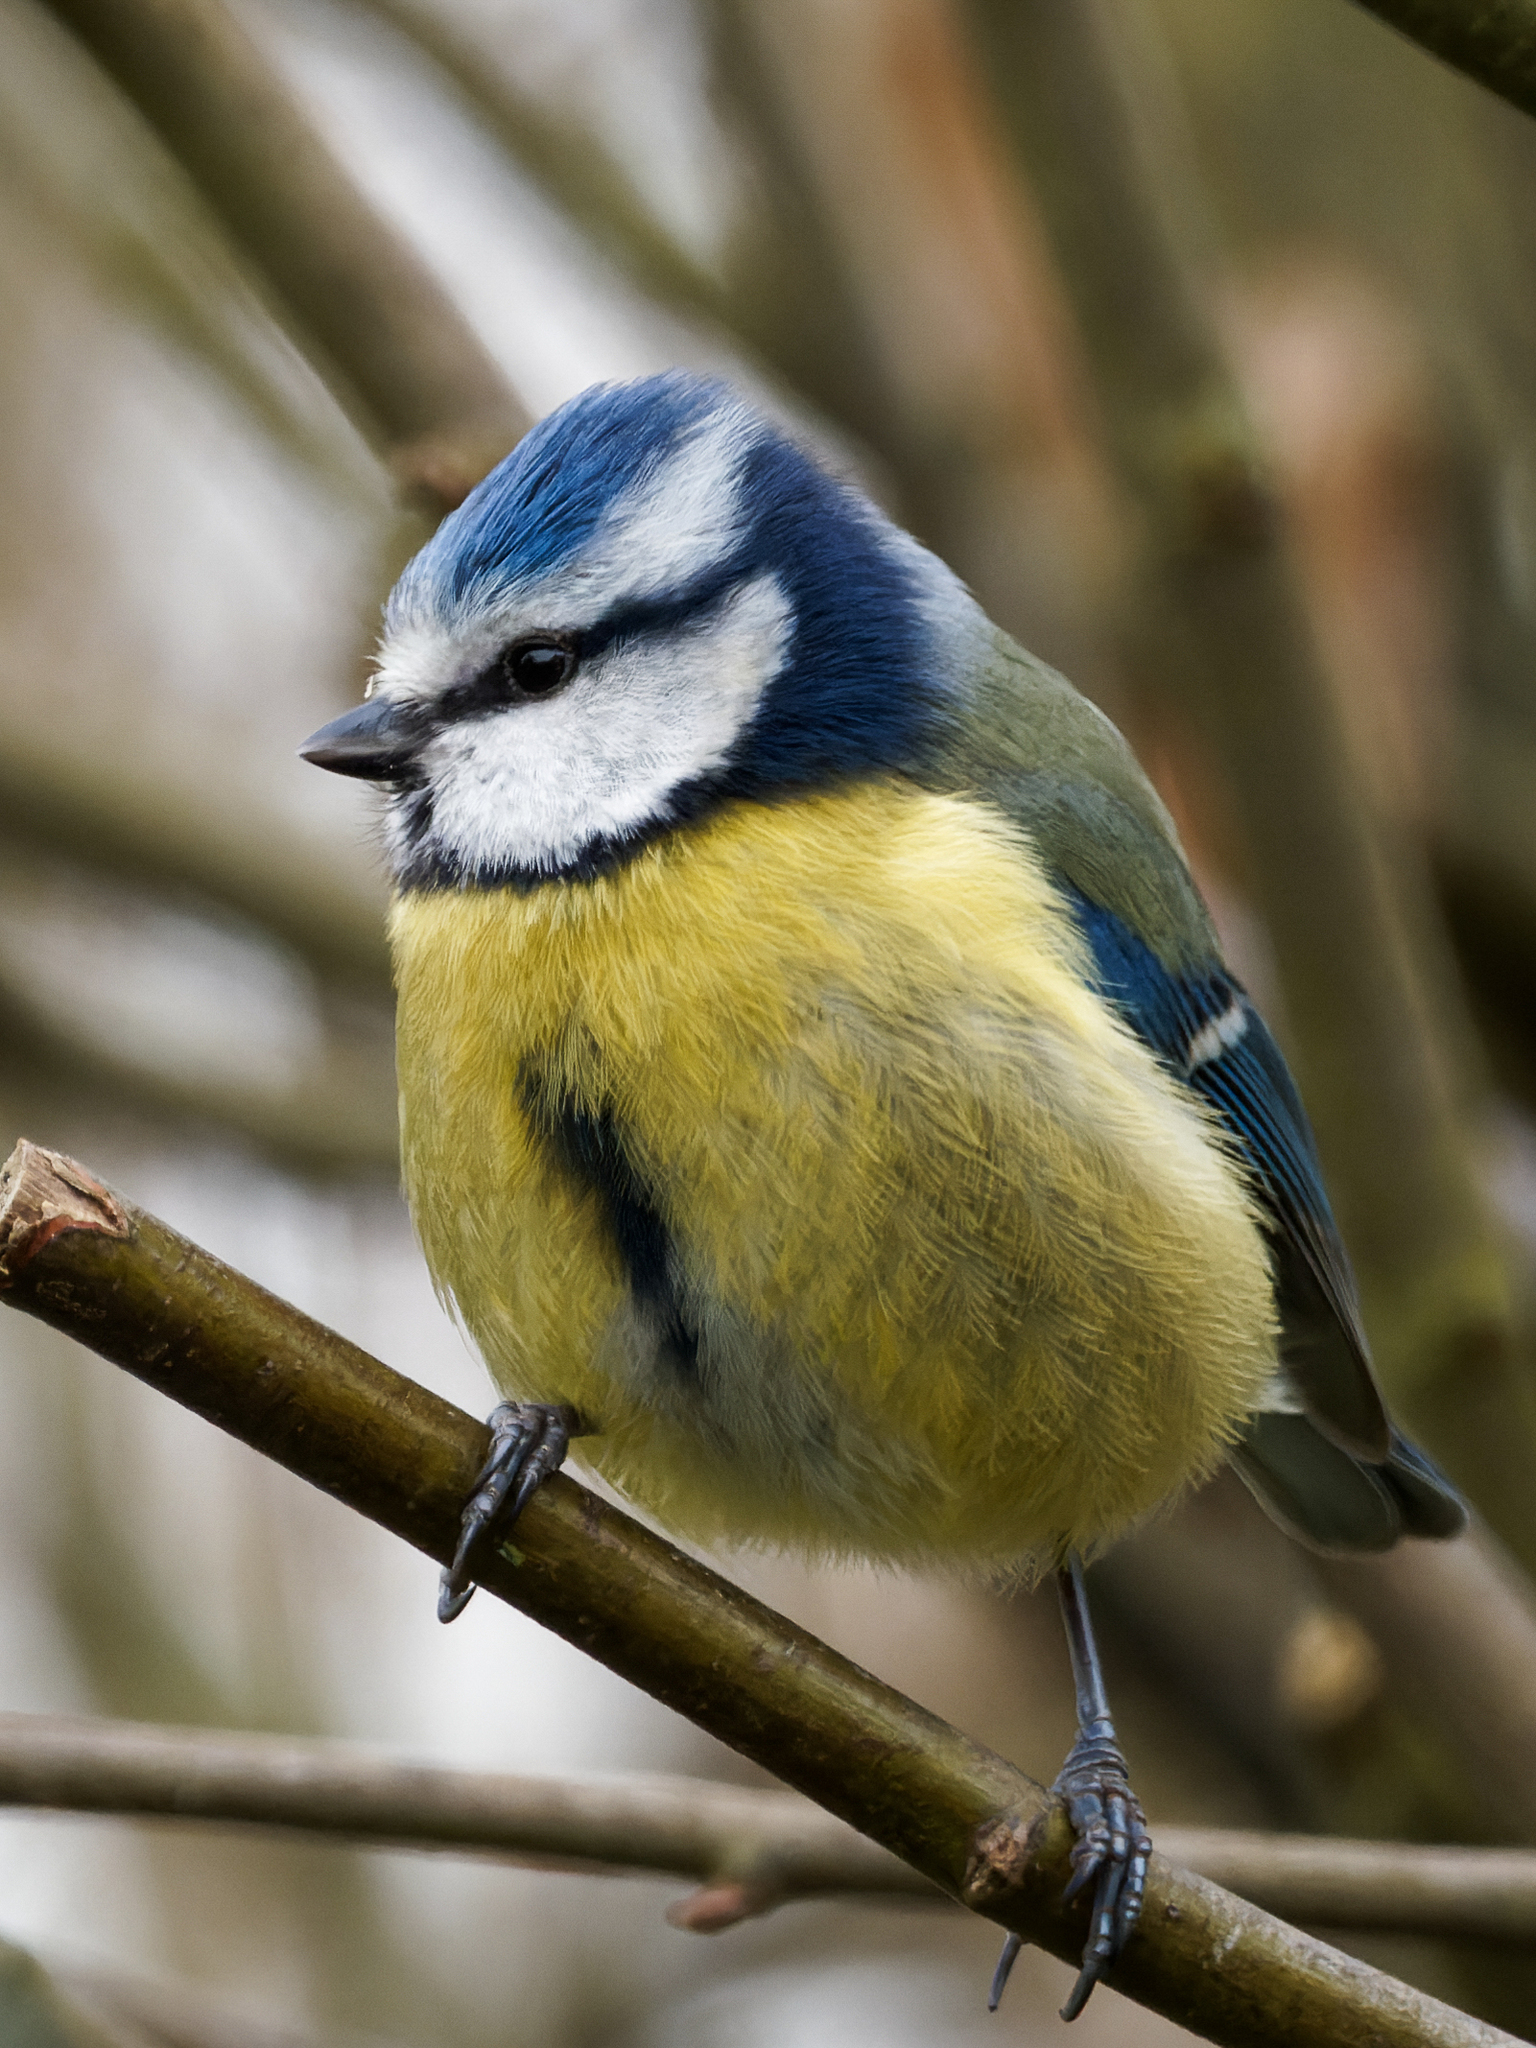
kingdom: Animalia
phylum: Chordata
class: Aves
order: Passeriformes
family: Paridae
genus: Cyanistes
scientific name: Cyanistes caeruleus
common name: Eurasian blue tit
